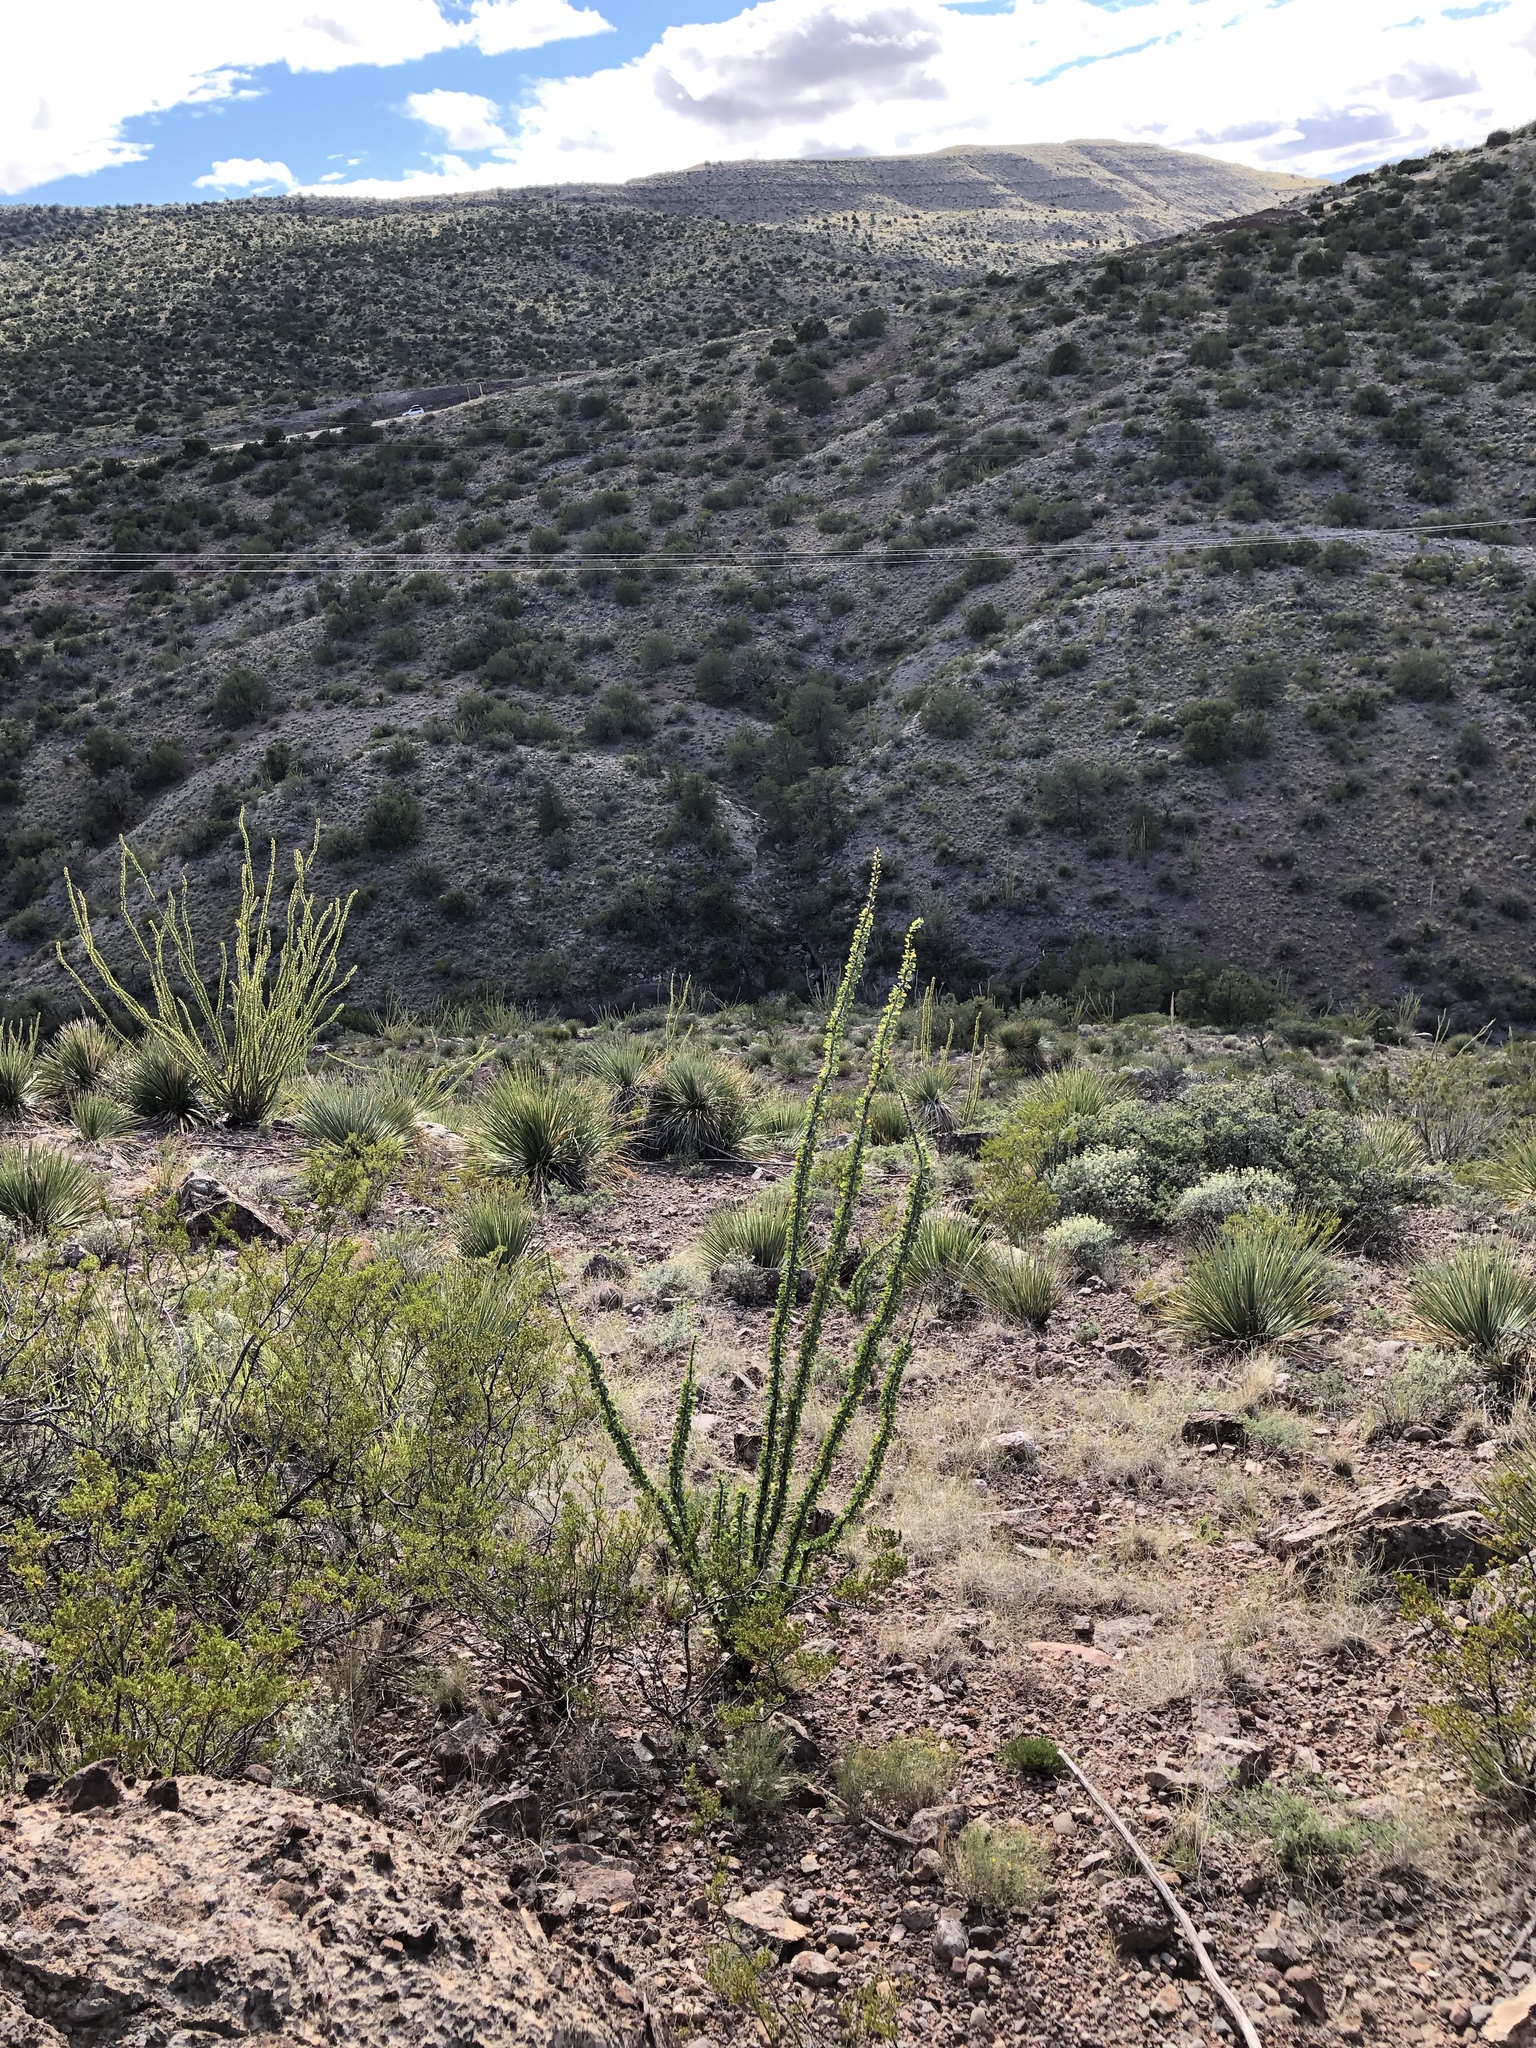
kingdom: Plantae
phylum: Tracheophyta
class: Magnoliopsida
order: Ericales
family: Fouquieriaceae
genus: Fouquieria
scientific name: Fouquieria splendens
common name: Vine-cactus
